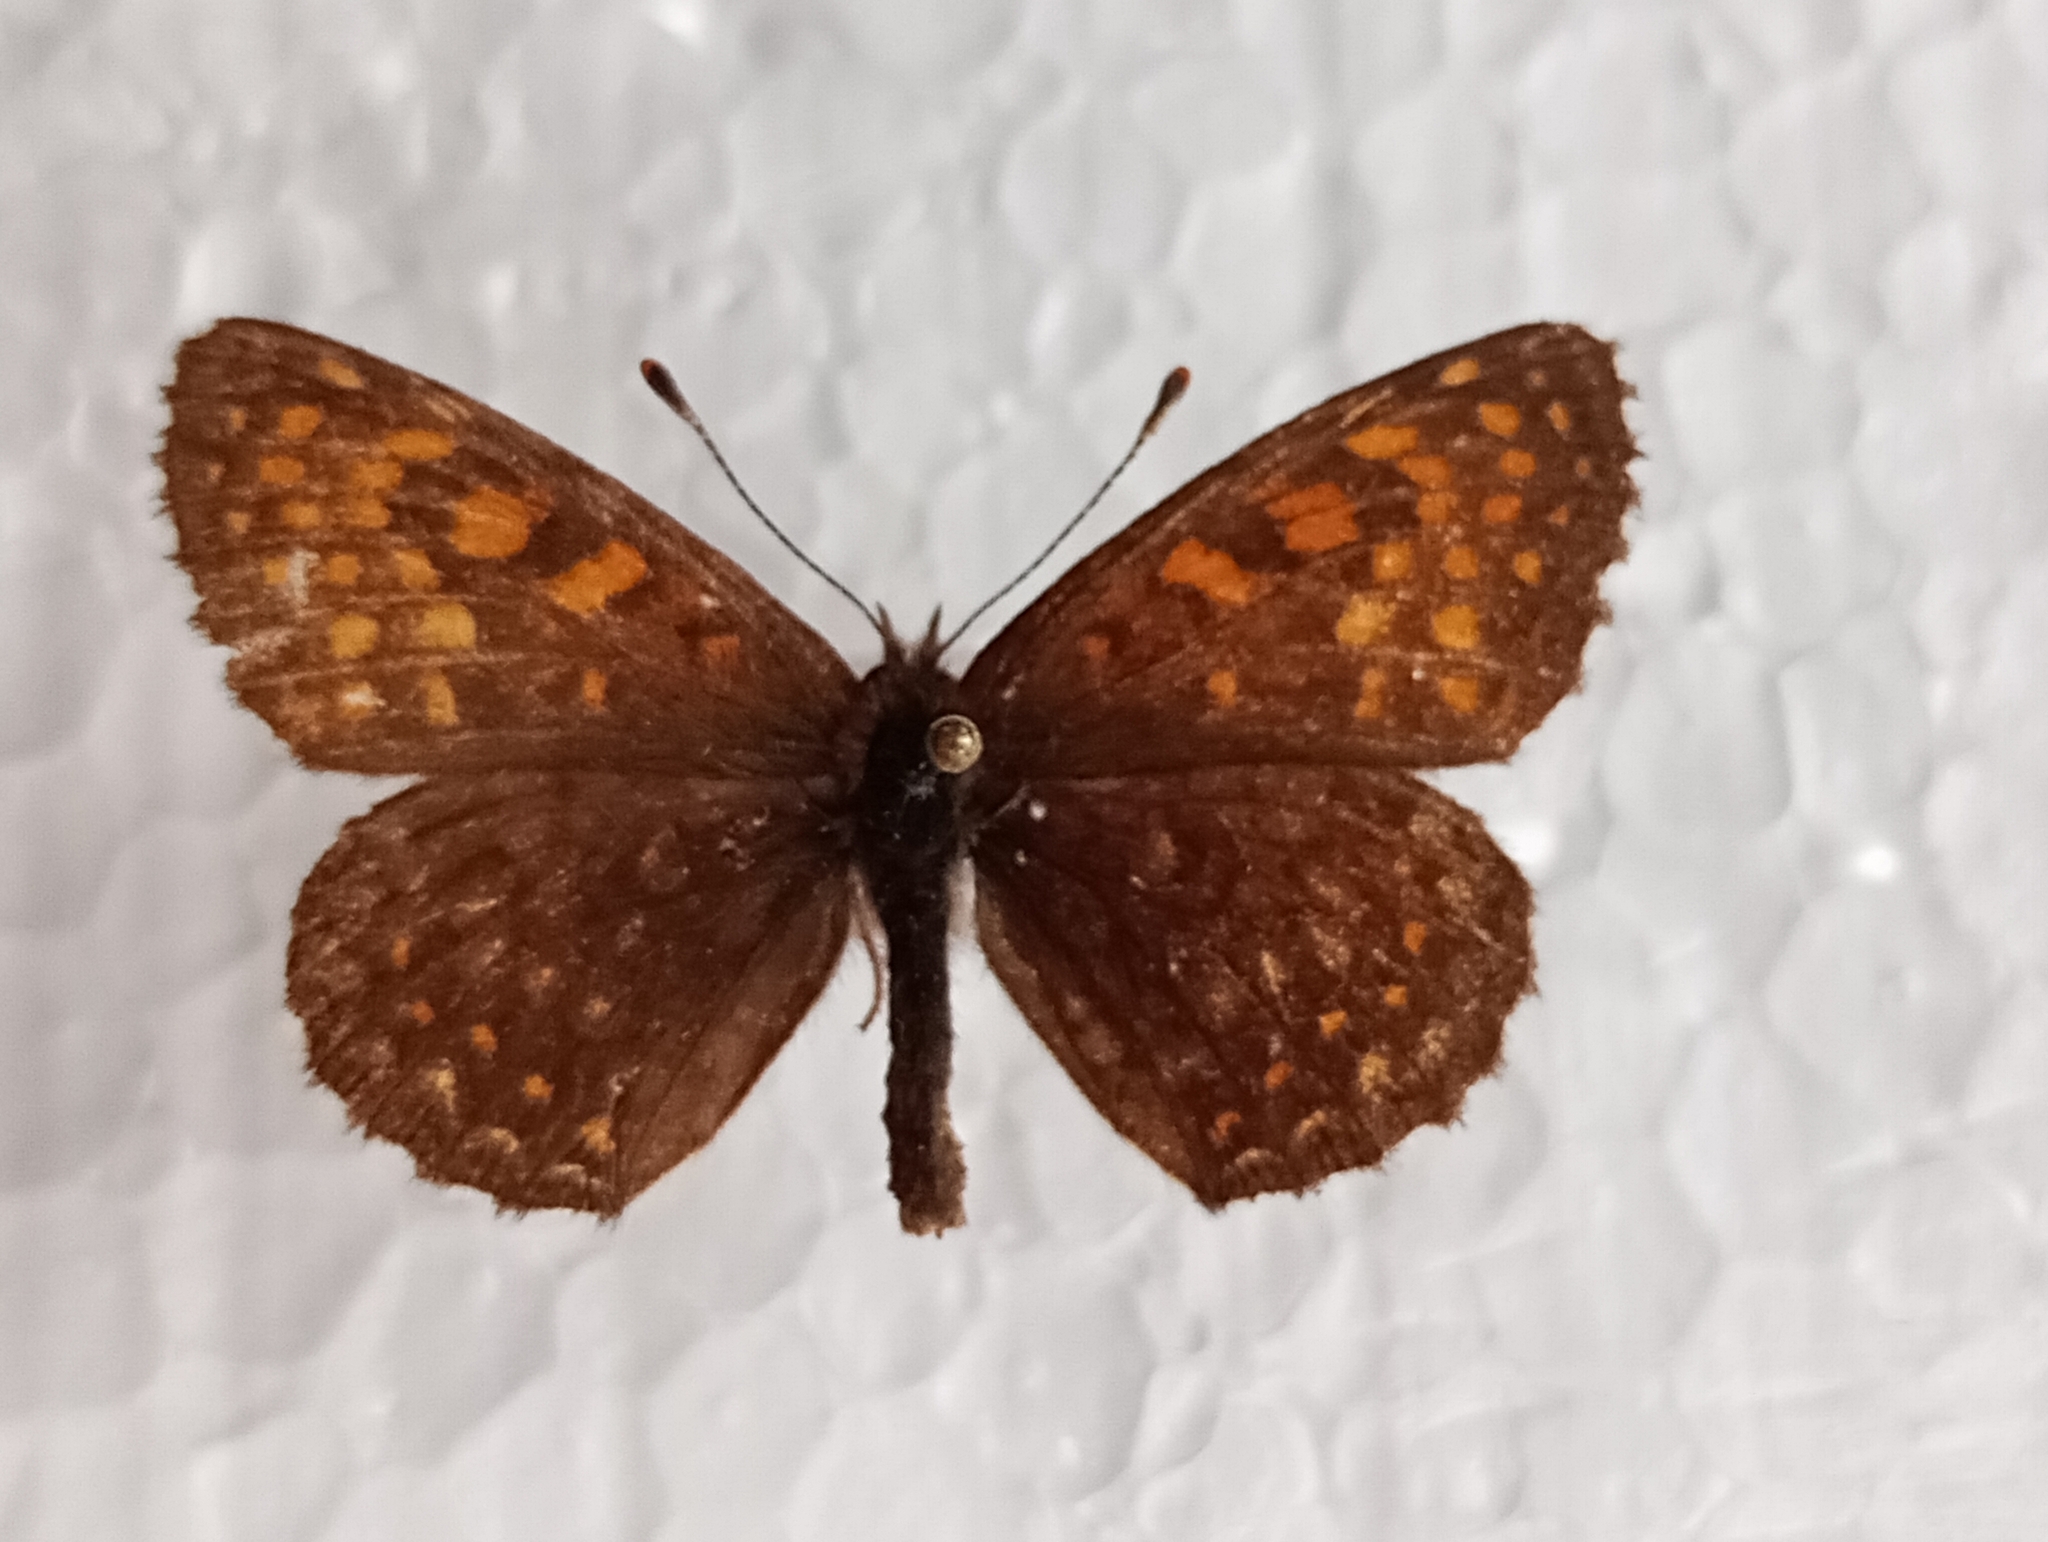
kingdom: Animalia
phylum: Arthropoda
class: Insecta
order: Lepidoptera
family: Nymphalidae
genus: Melitaea
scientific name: Melitaea diamina
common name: False heath fritillary
